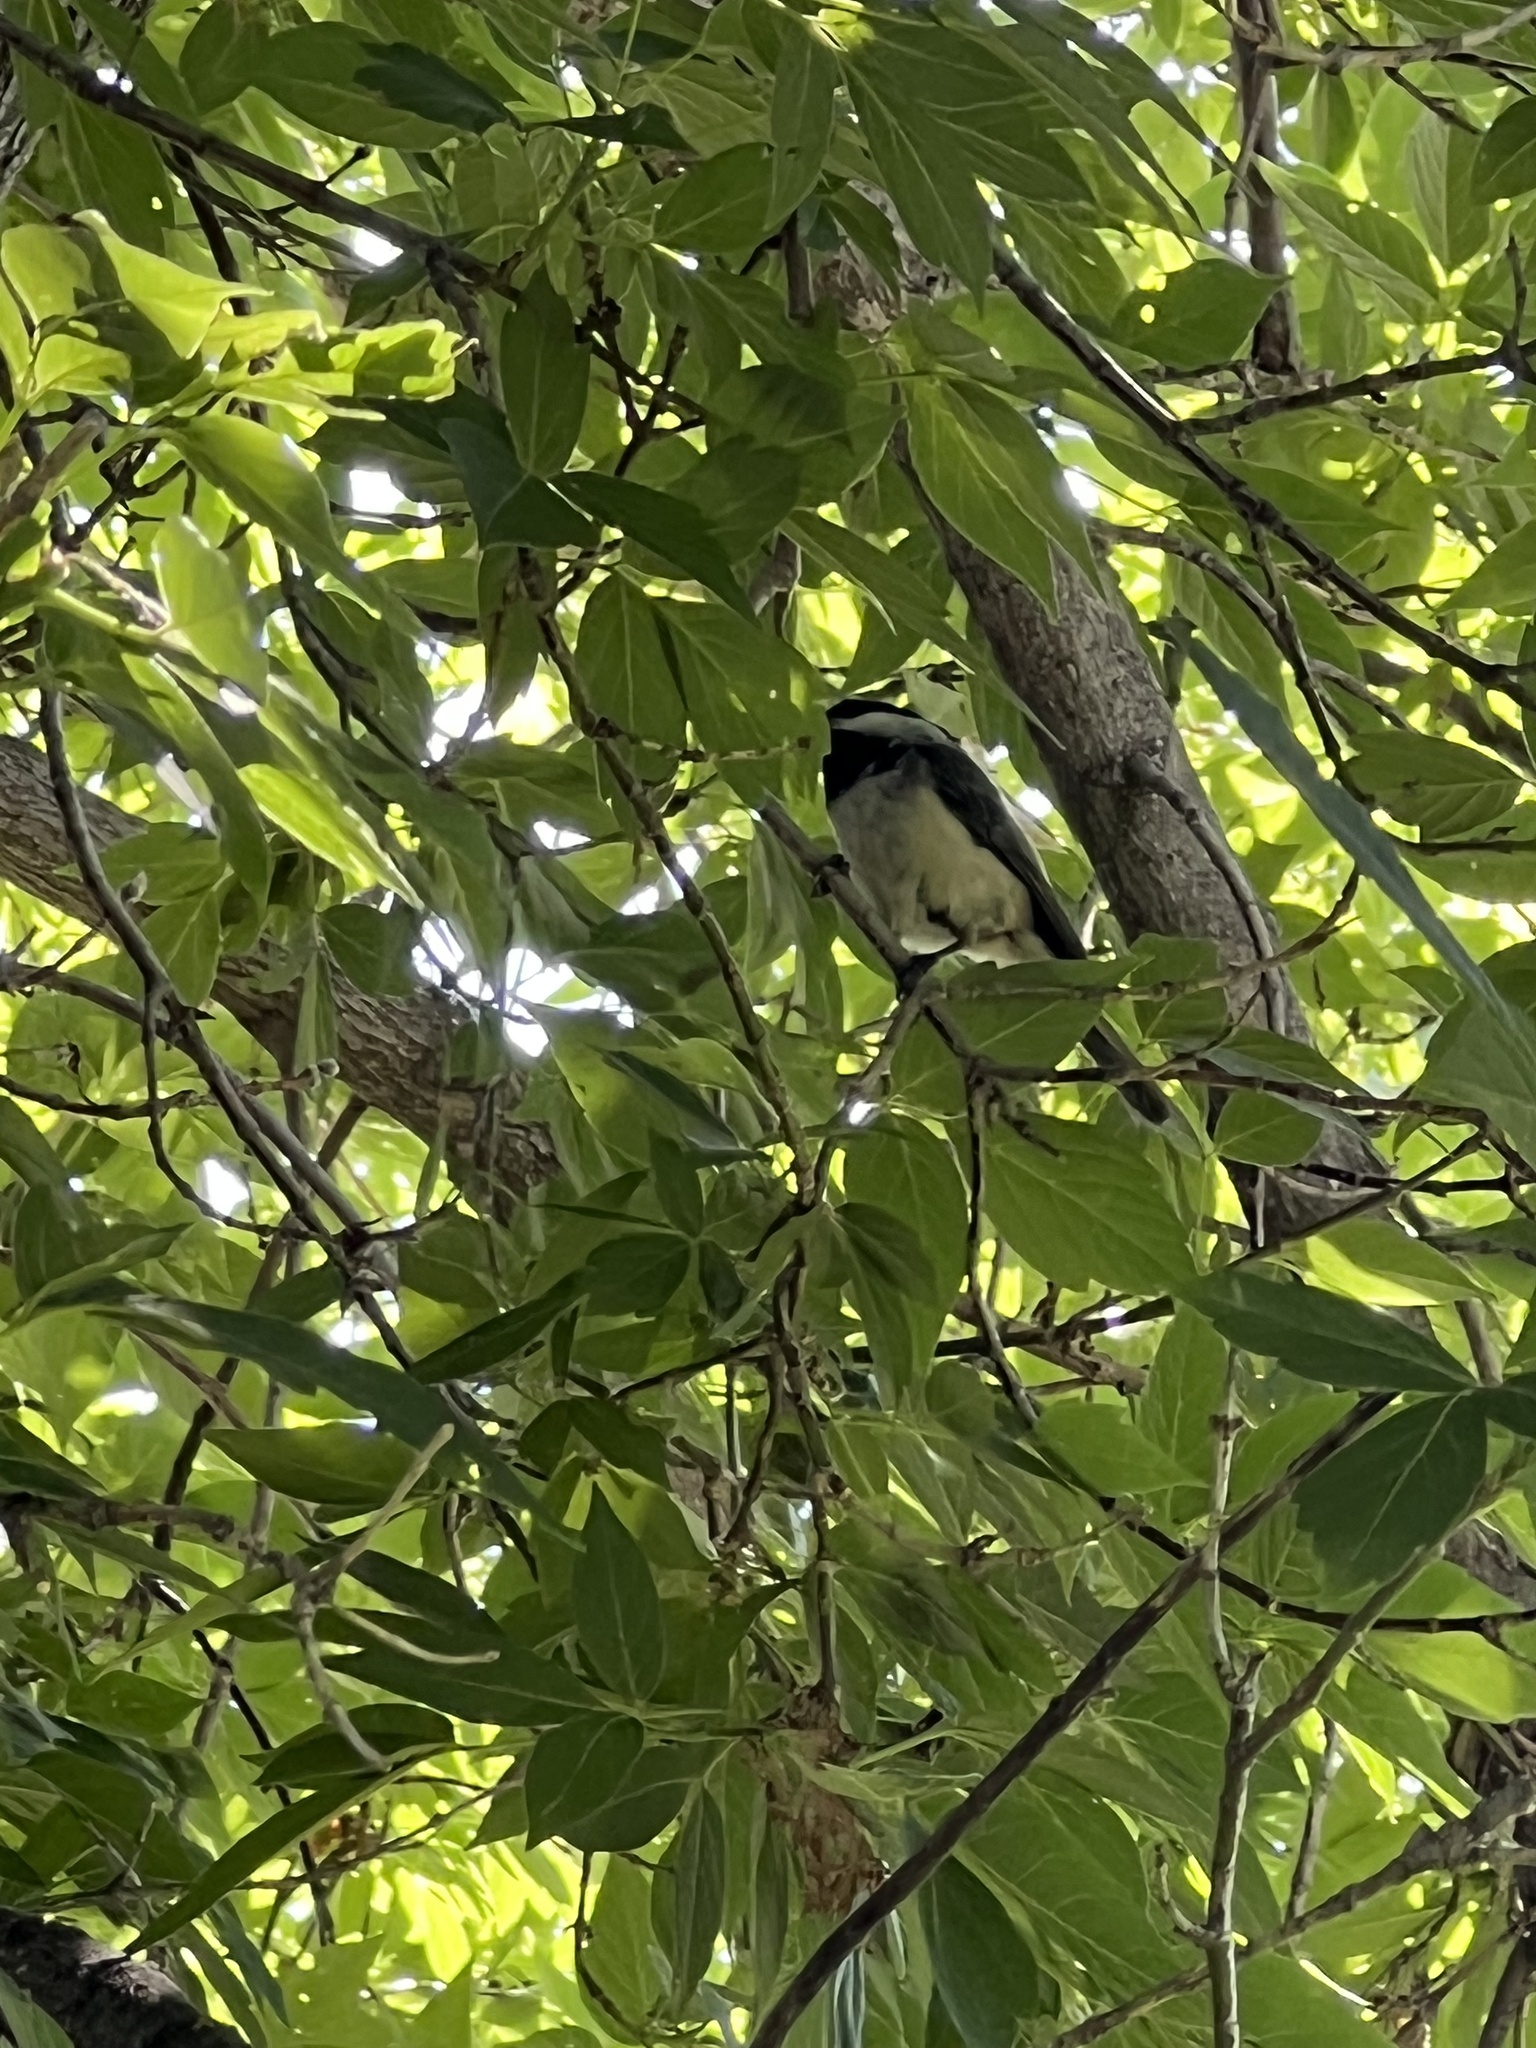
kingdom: Animalia
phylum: Chordata
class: Aves
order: Passeriformes
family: Paridae
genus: Poecile
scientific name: Poecile atricapillus
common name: Black-capped chickadee
